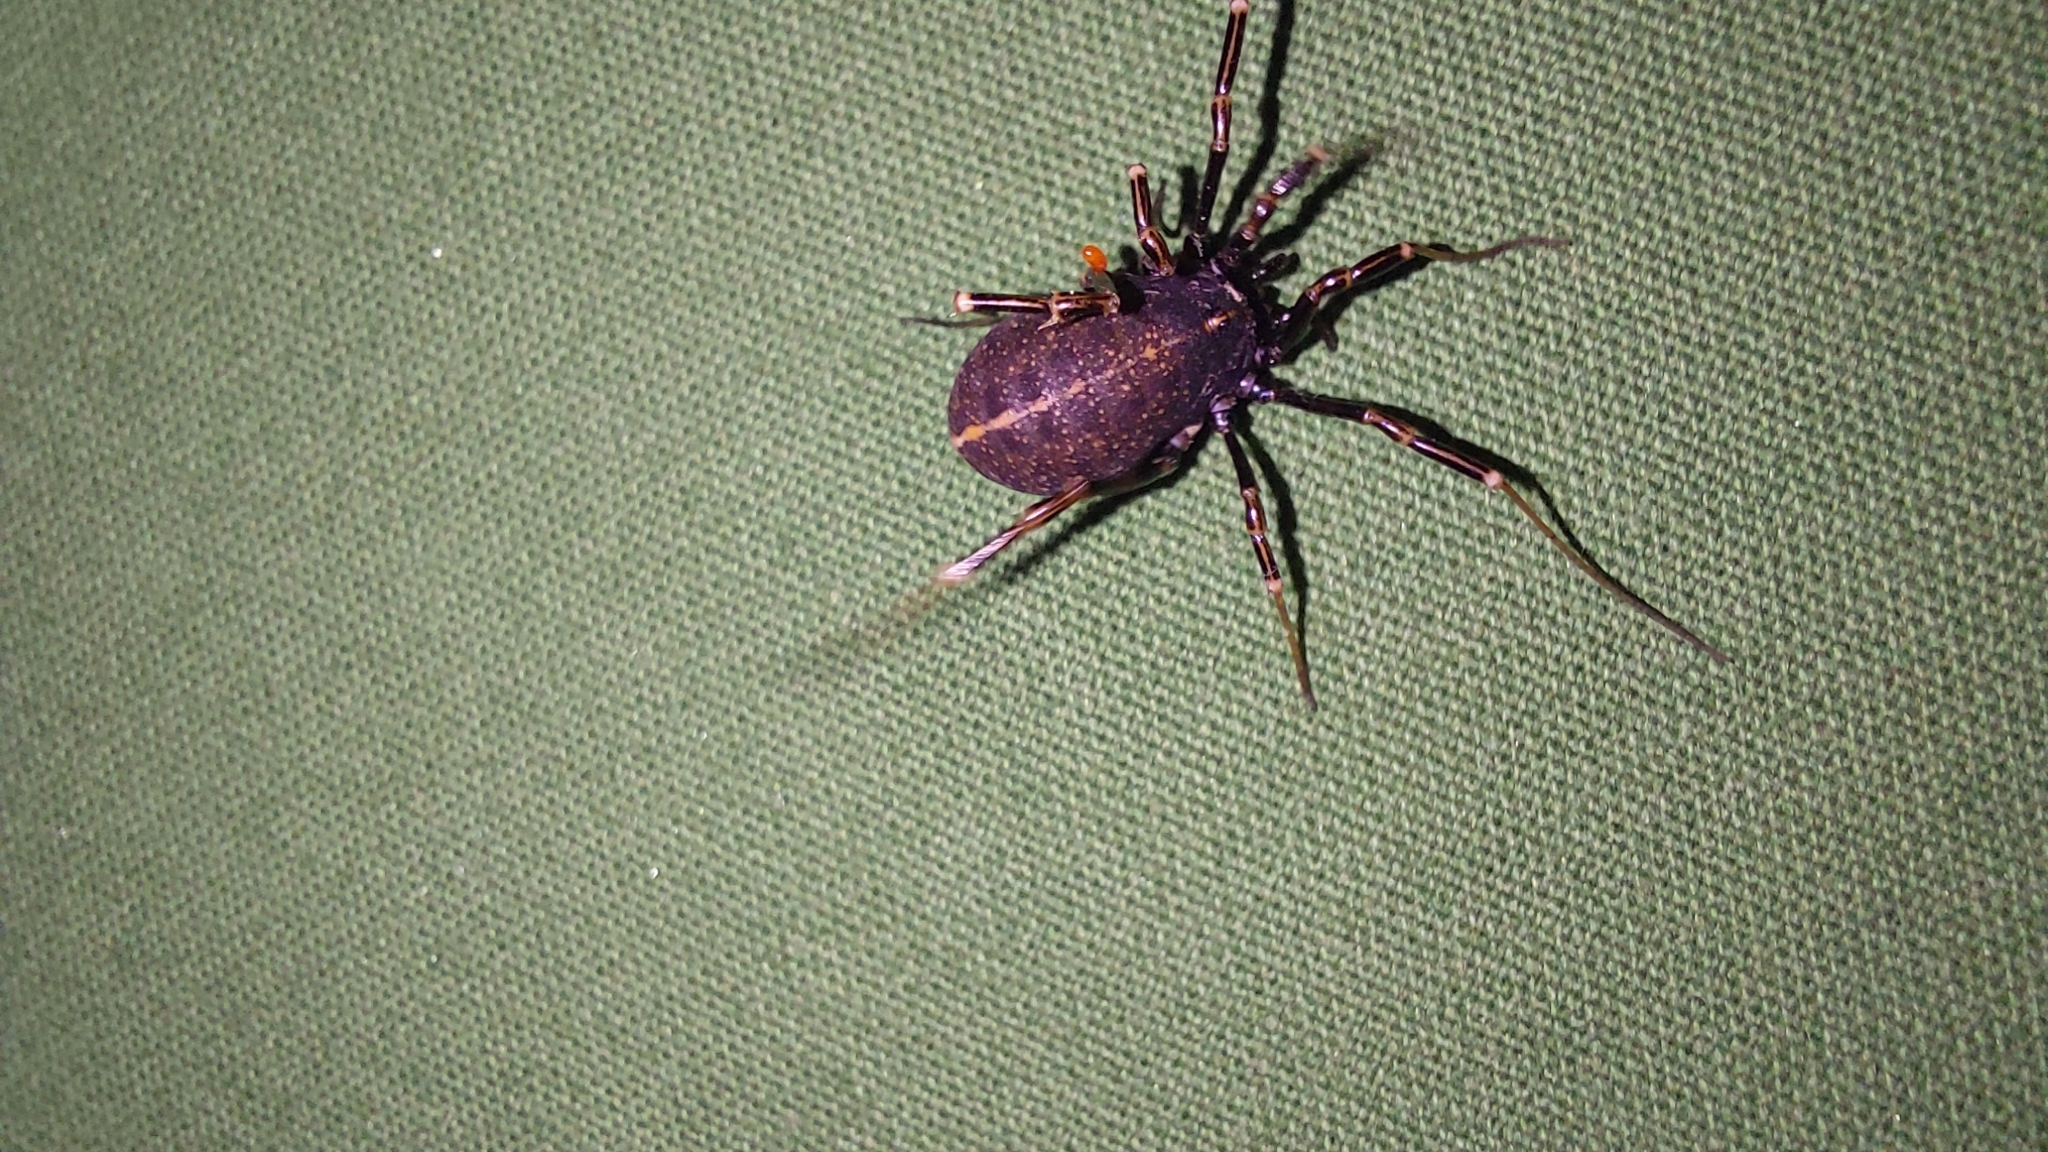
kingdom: Animalia
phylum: Arthropoda
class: Arachnida
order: Opiliones
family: Phalangiidae
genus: Egaenus
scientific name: Egaenus convexus
